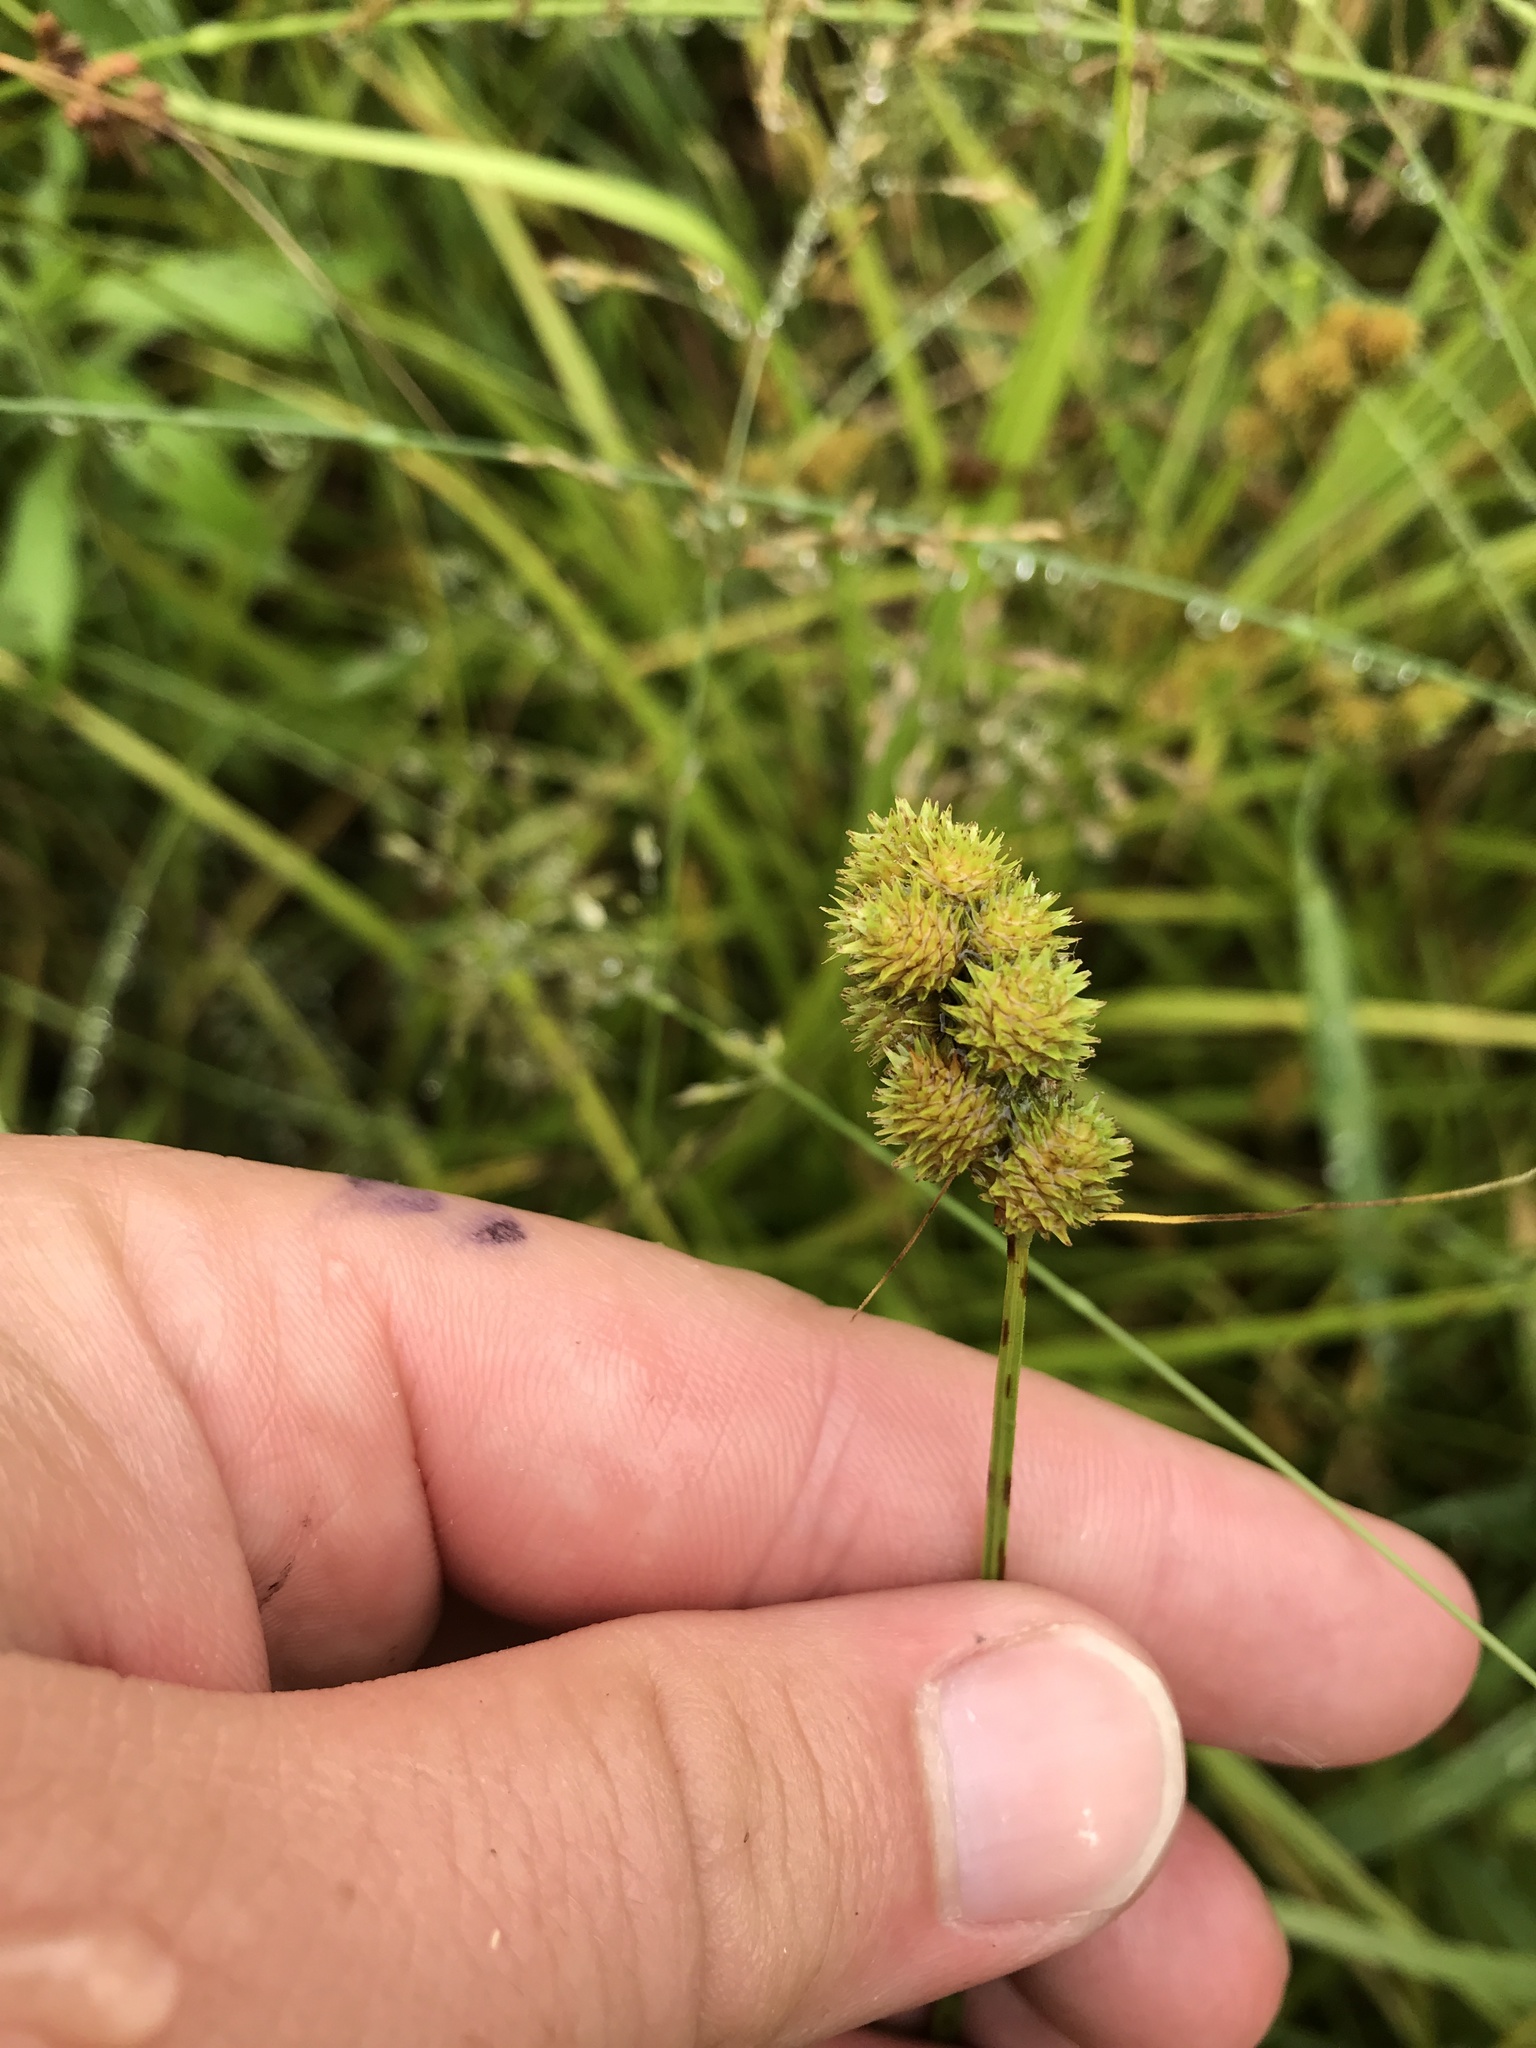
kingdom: Plantae
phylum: Tracheophyta
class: Liliopsida
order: Poales
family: Cyperaceae
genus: Carex
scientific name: Carex cristatella
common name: Crested oval sedge
